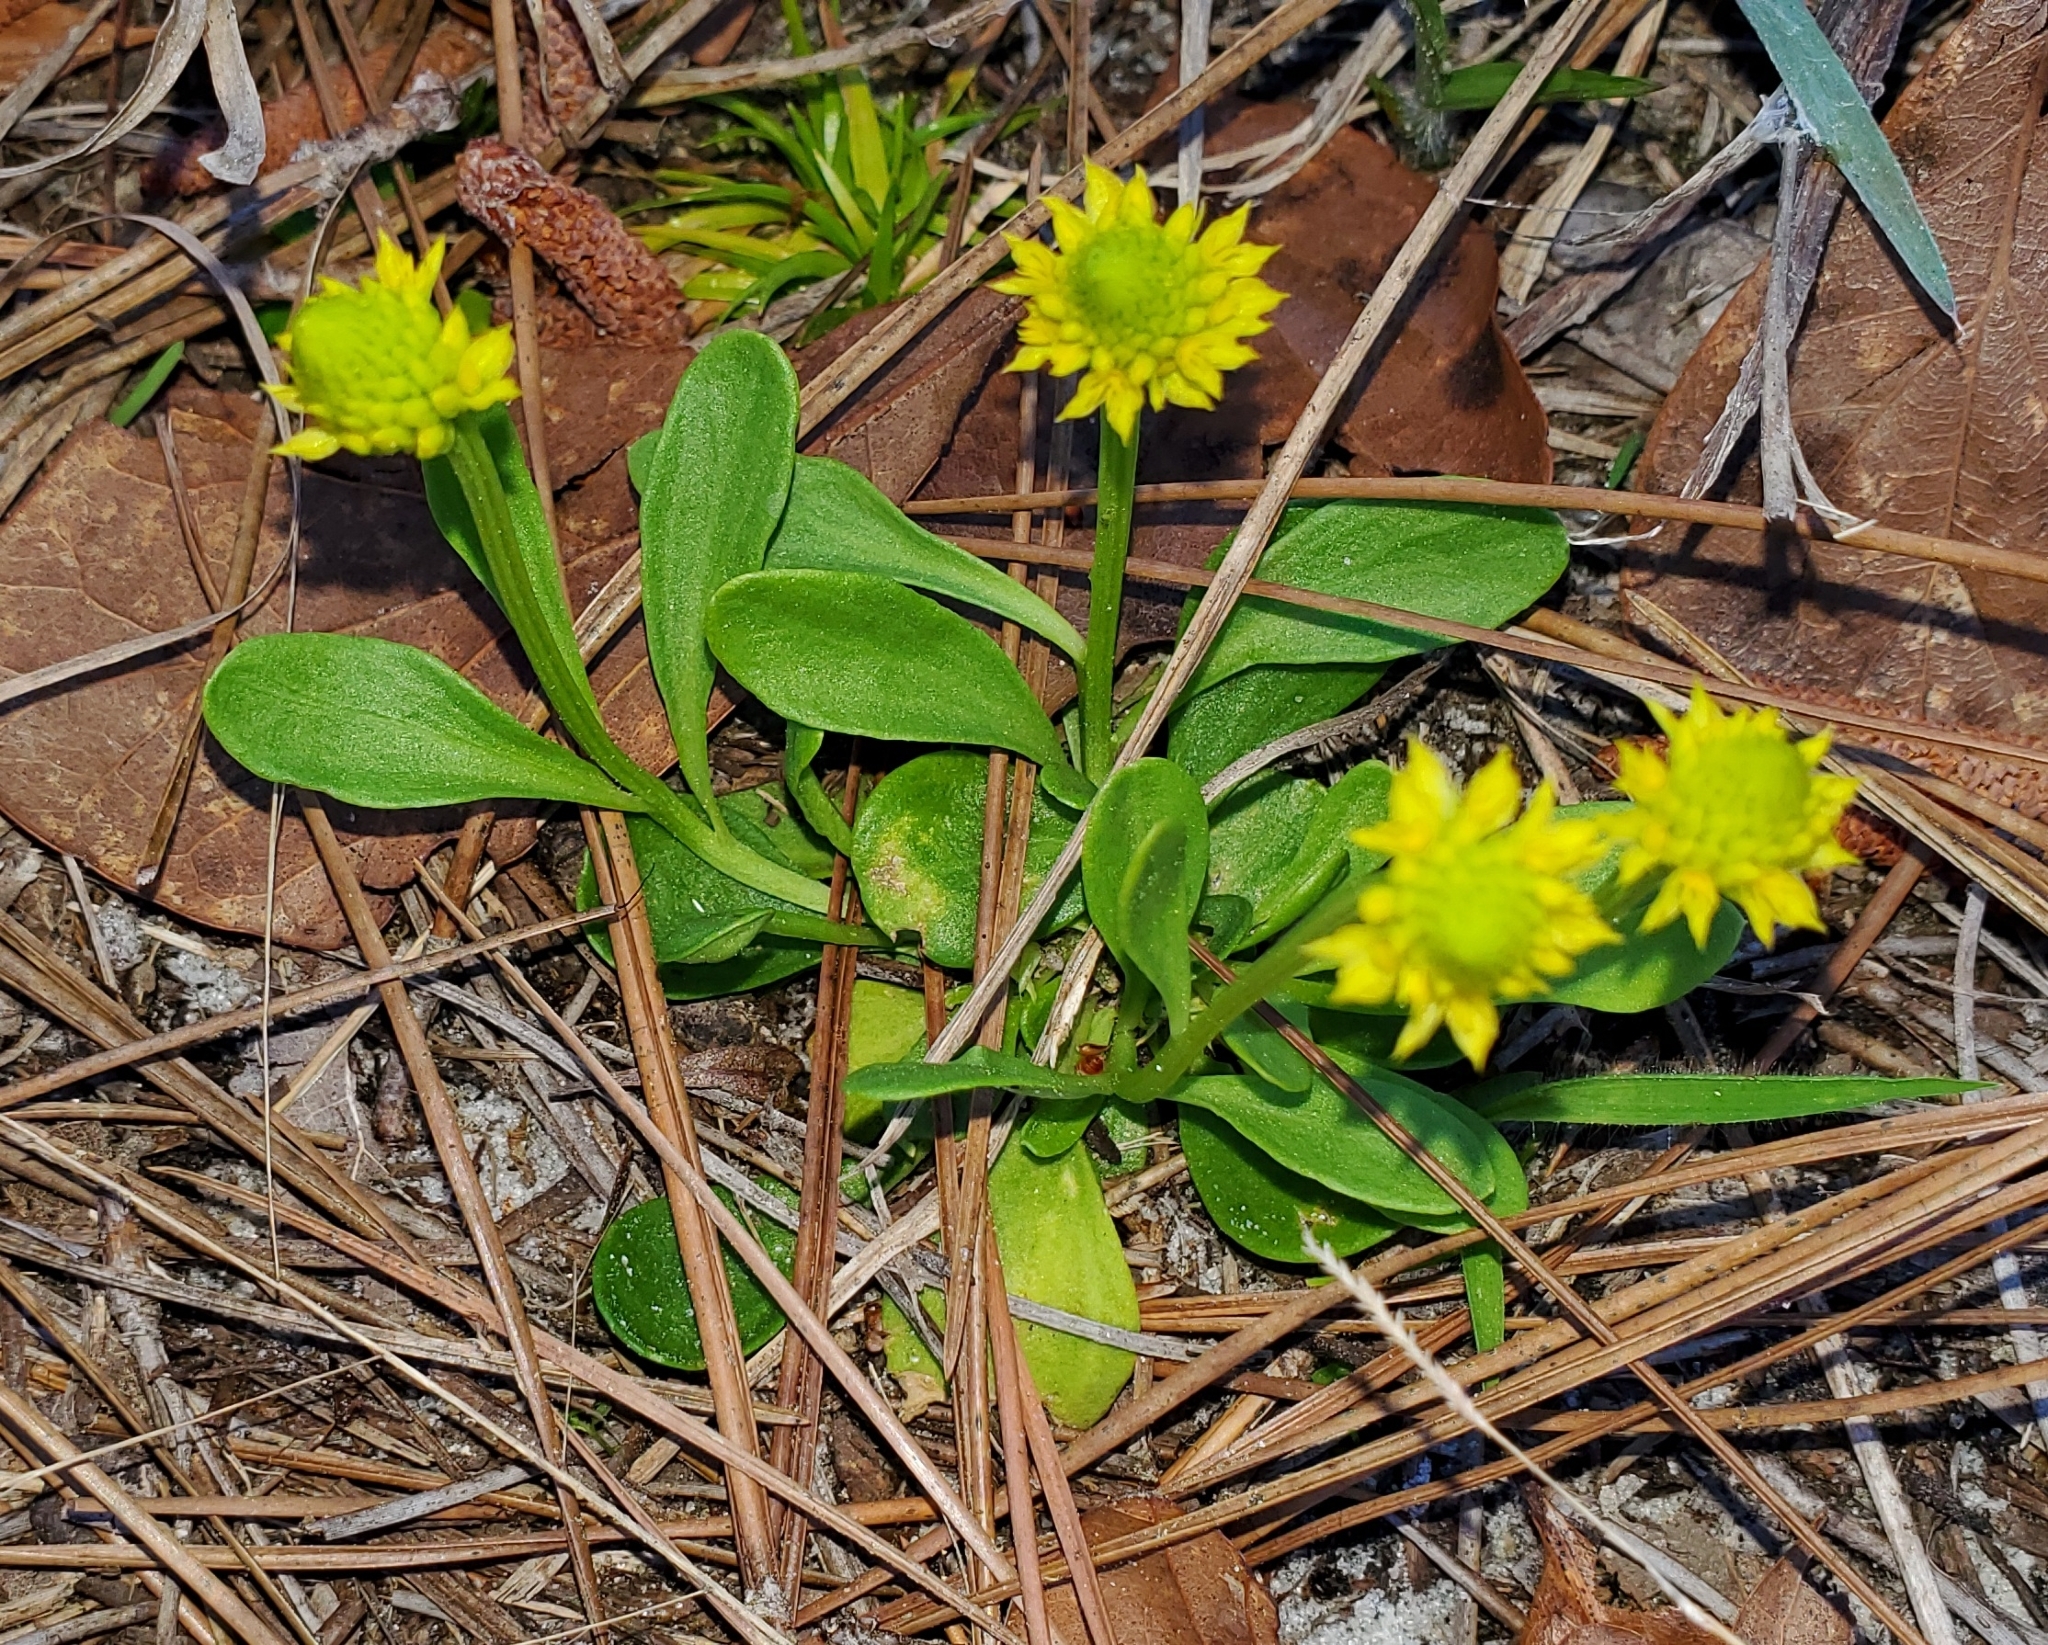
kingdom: Plantae
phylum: Tracheophyta
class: Magnoliopsida
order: Fabales
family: Polygalaceae
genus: Polygala
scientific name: Polygala nana
